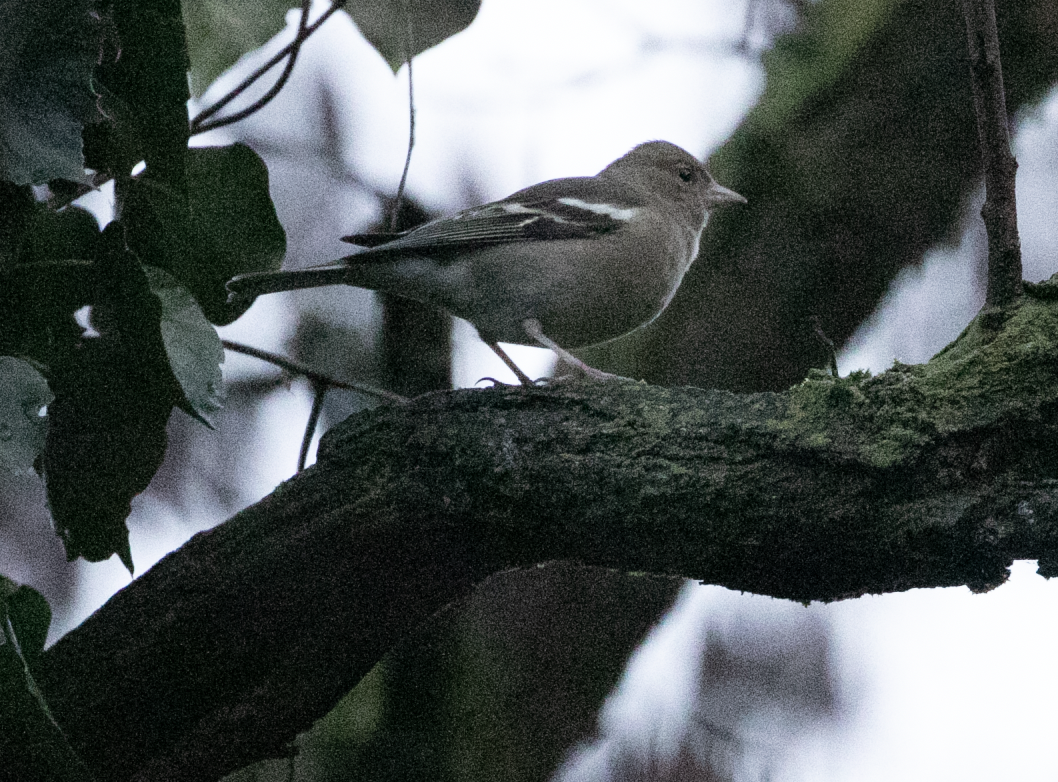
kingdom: Animalia
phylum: Chordata
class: Aves
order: Passeriformes
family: Fringillidae
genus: Fringilla
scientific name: Fringilla coelebs
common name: Common chaffinch
